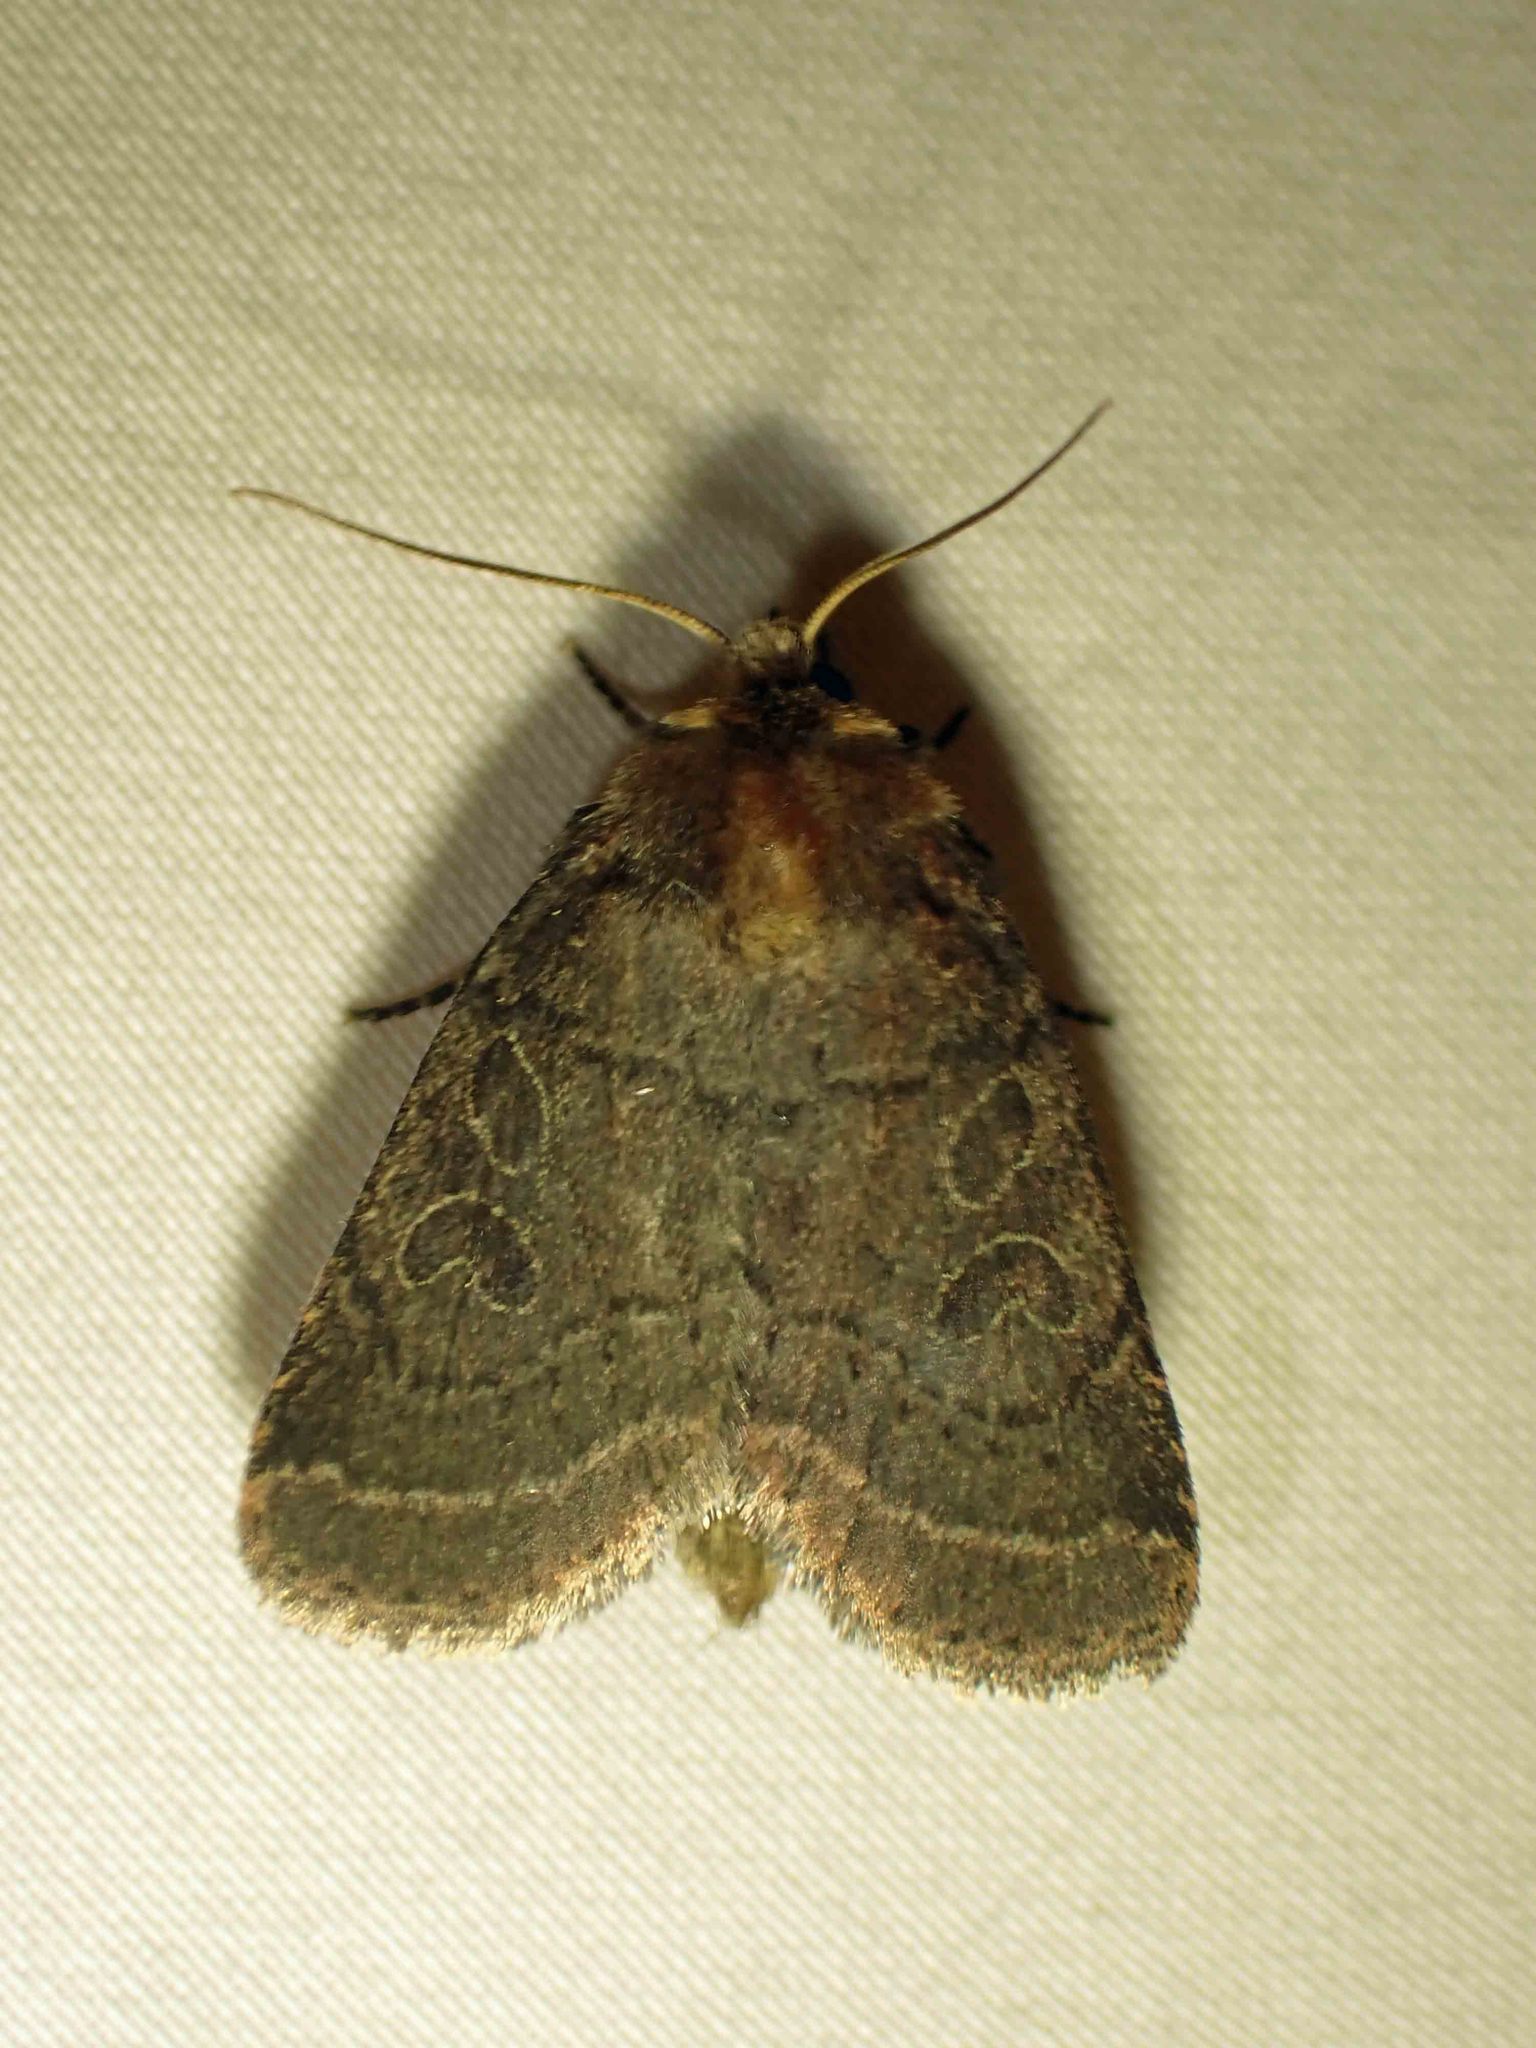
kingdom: Animalia
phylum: Arthropoda
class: Insecta
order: Lepidoptera
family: Noctuidae
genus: Orthodes
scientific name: Orthodes cynica
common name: Cynical quaker
